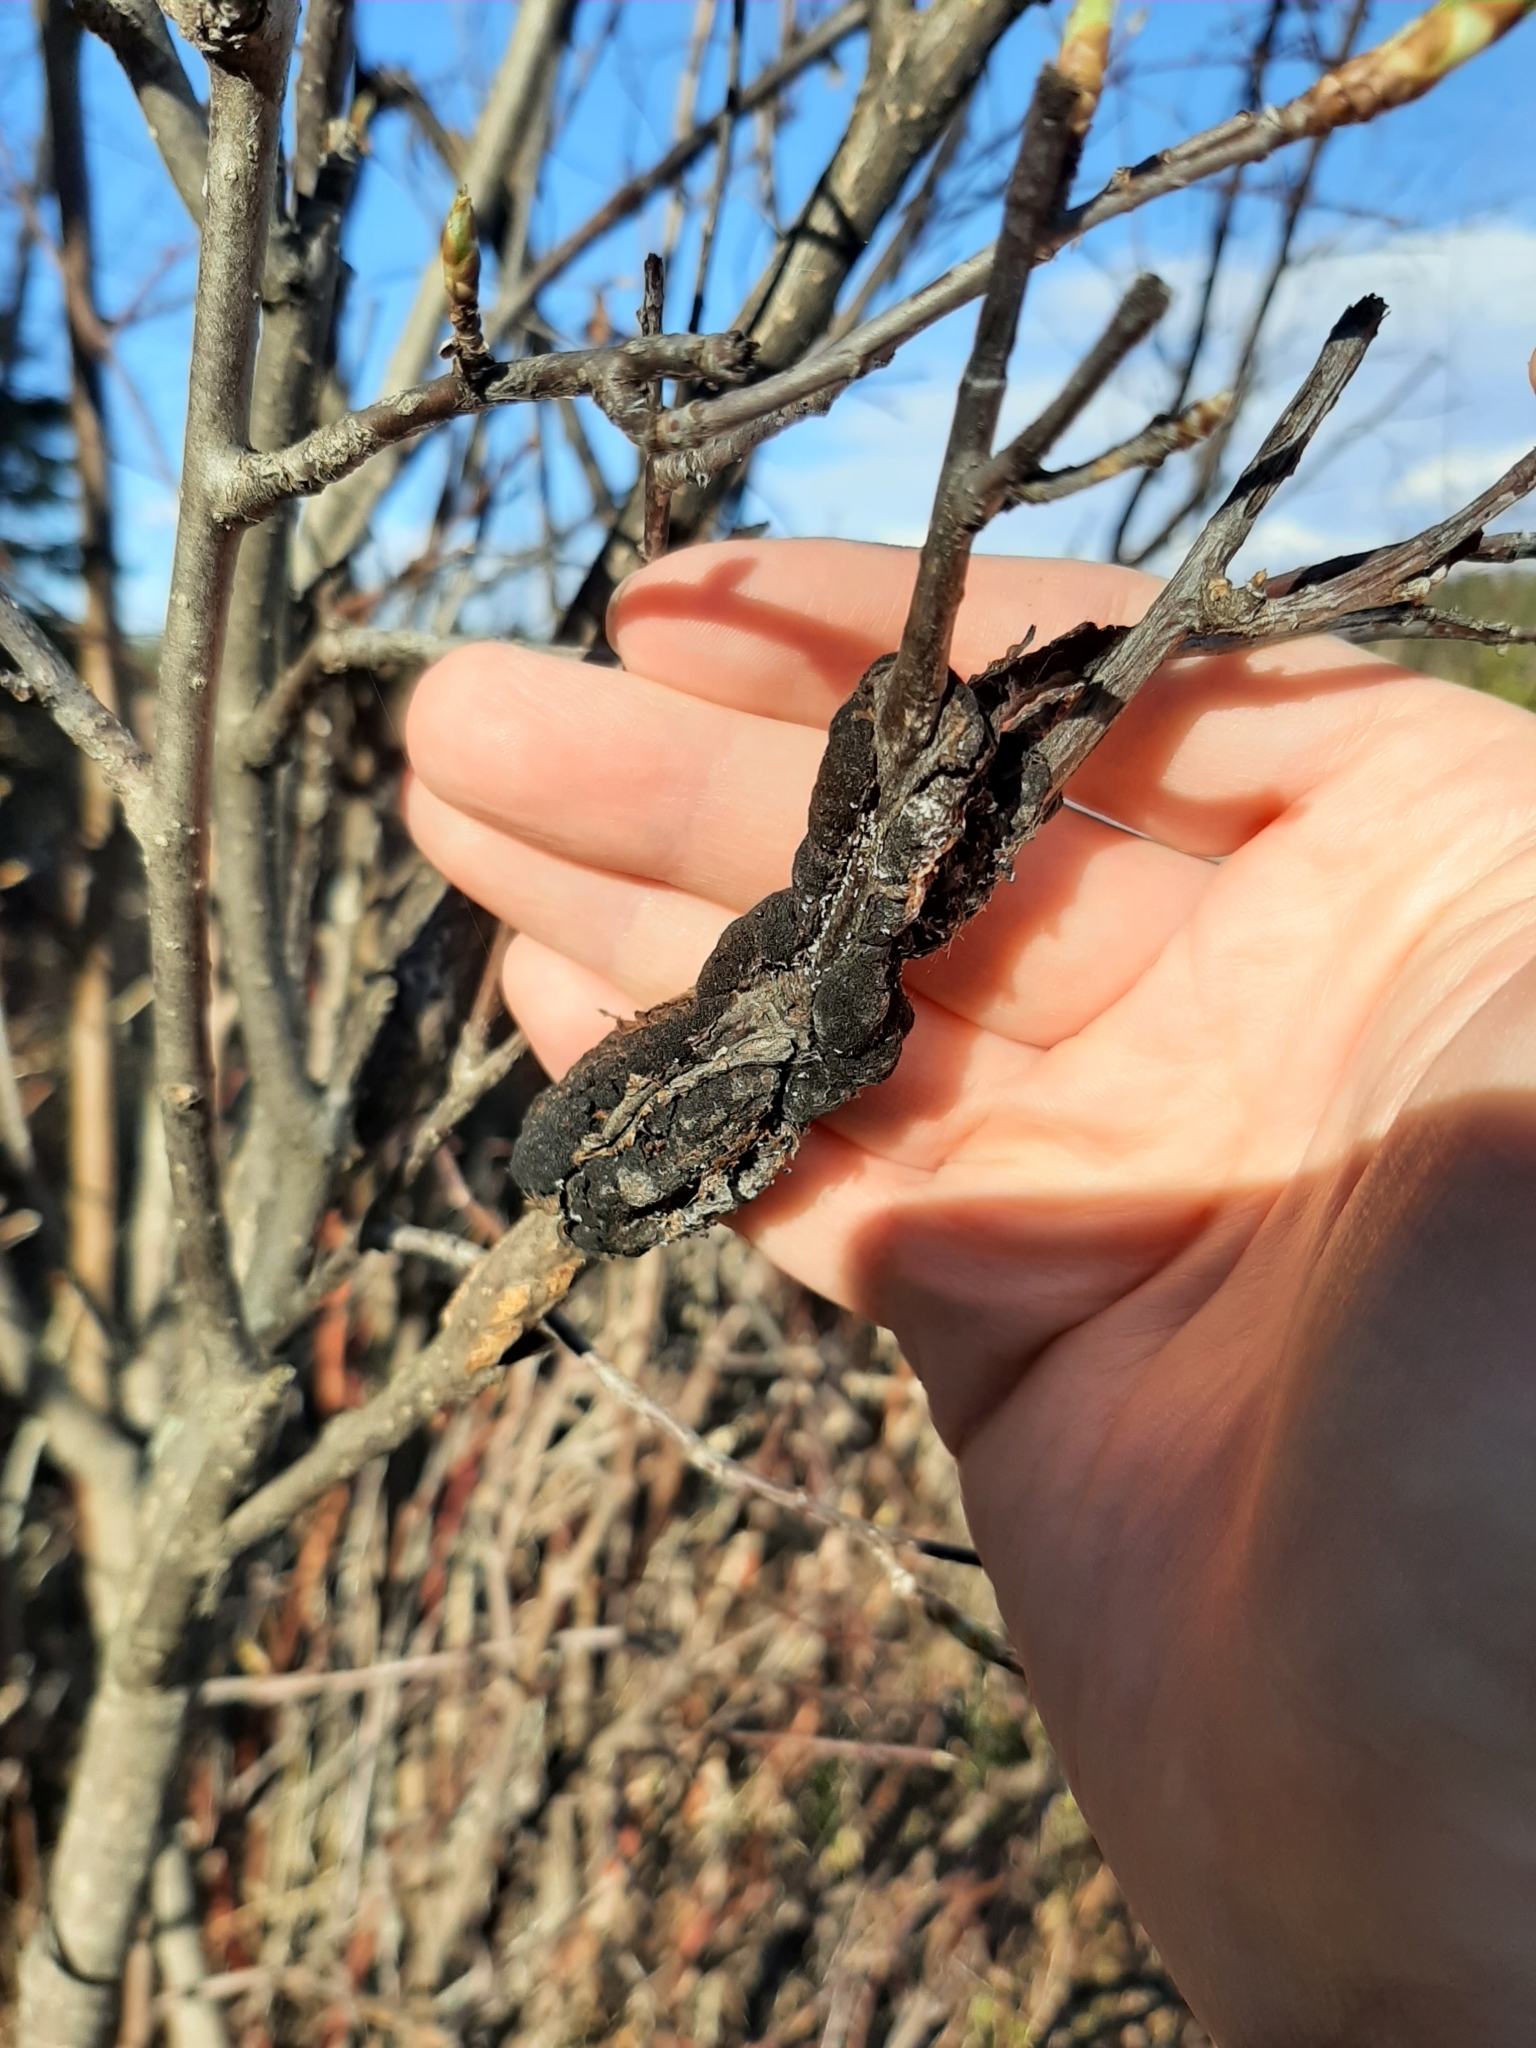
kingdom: Fungi
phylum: Ascomycota
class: Dothideomycetes
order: Venturiales
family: Venturiaceae
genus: Apiosporina
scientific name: Apiosporina morbosa
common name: Black knot
